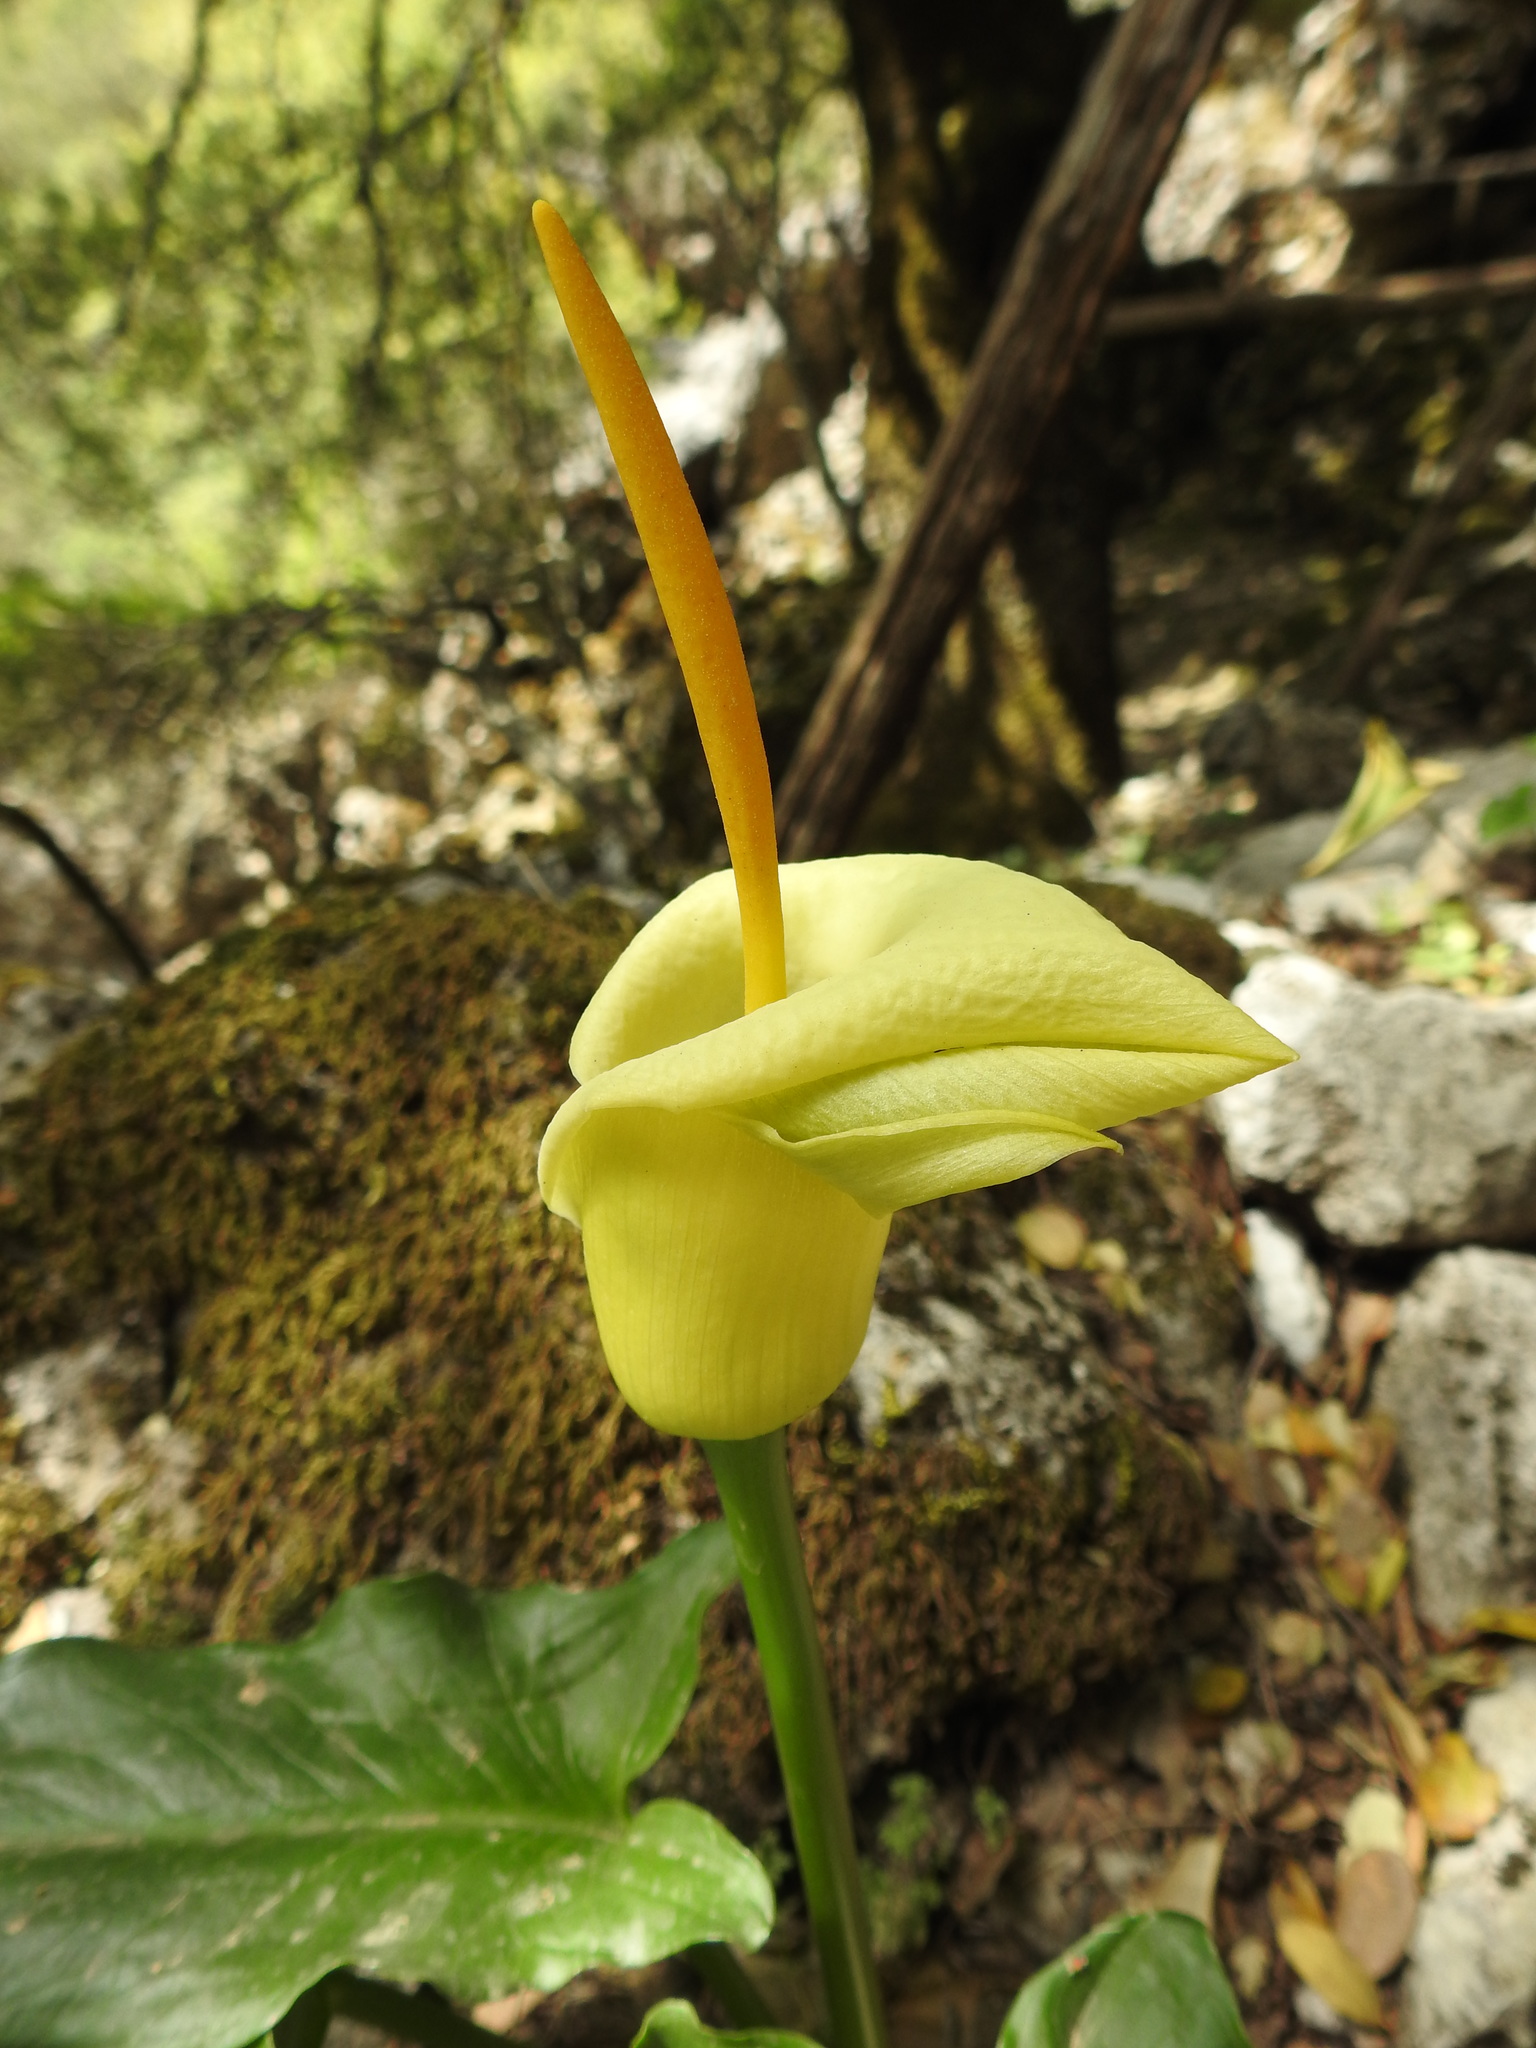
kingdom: Plantae
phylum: Tracheophyta
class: Liliopsida
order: Alismatales
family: Araceae
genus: Arum
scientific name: Arum creticum
